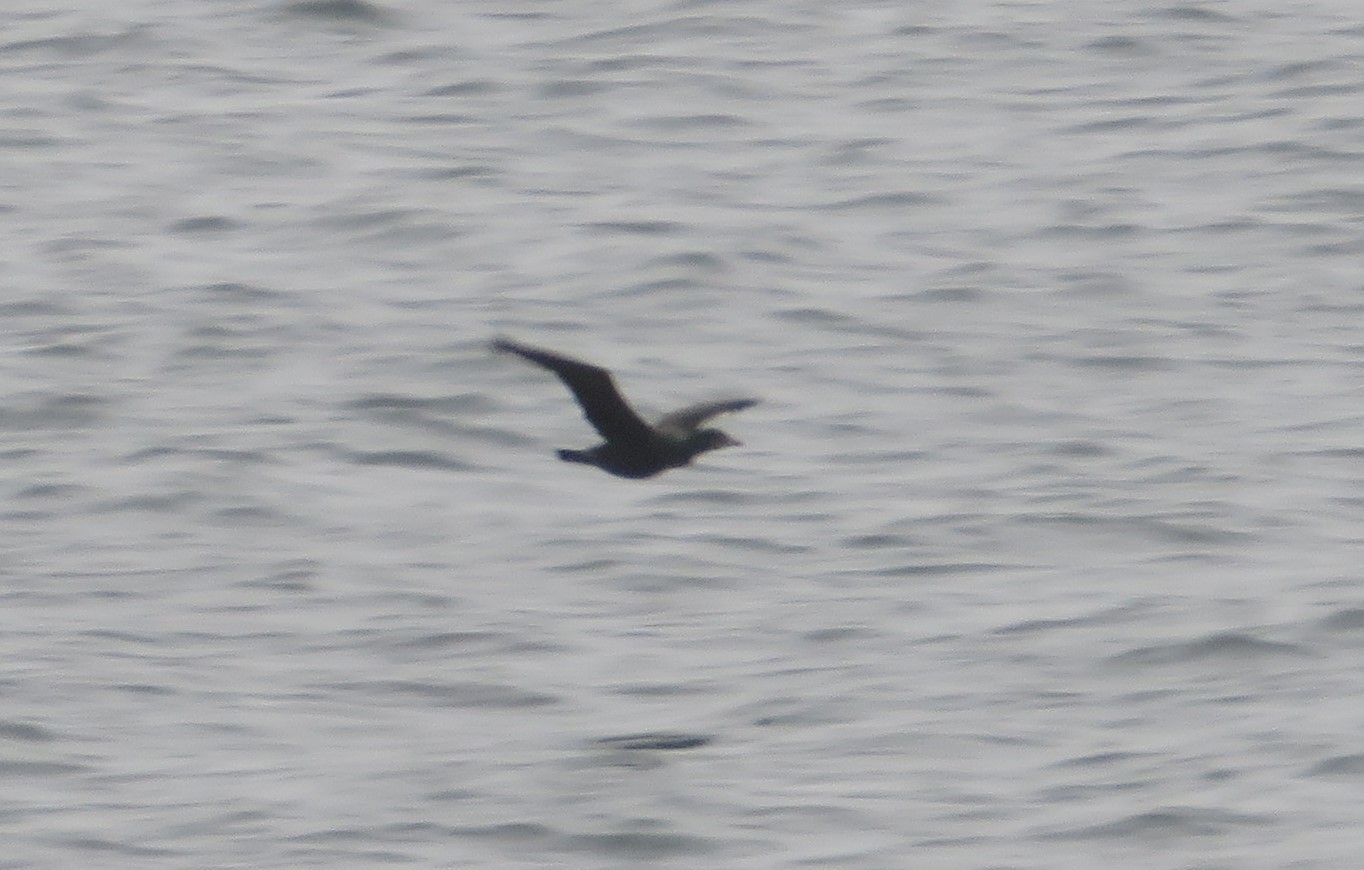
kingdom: Animalia
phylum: Chordata
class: Aves
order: Suliformes
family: Phalacrocoracidae
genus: Phalacrocorax
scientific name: Phalacrocorax auritus
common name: Double-crested cormorant
